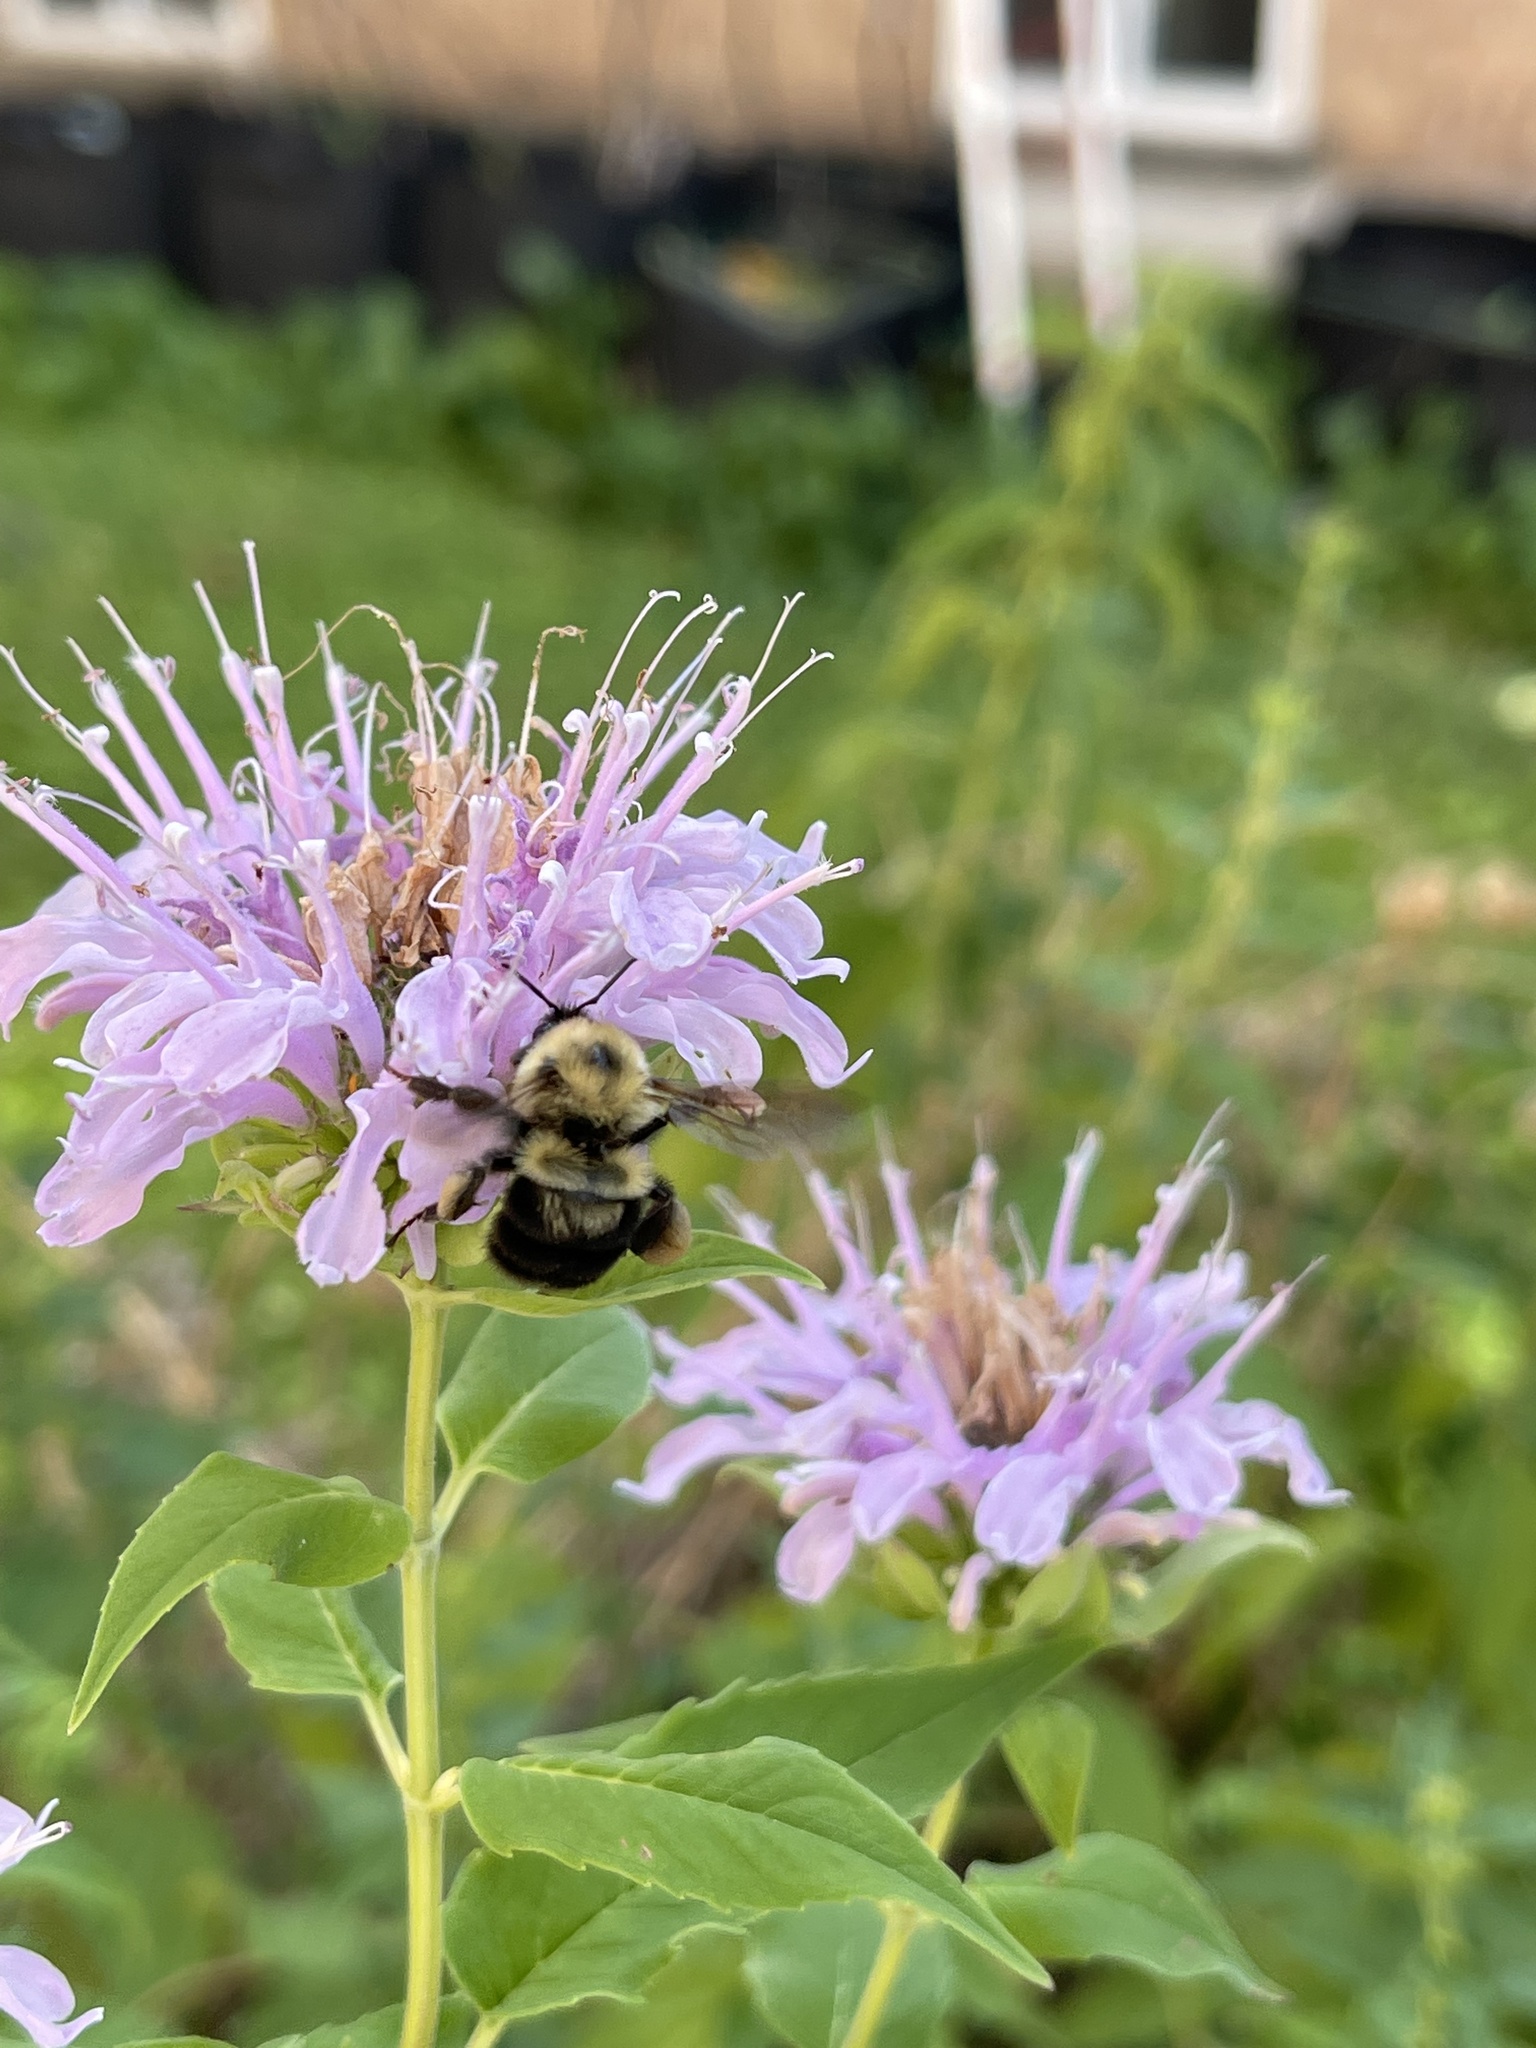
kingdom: Animalia
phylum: Arthropoda
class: Insecta
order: Hymenoptera
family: Apidae
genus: Bombus
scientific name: Bombus bimaculatus
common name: Two-spotted bumble bee
